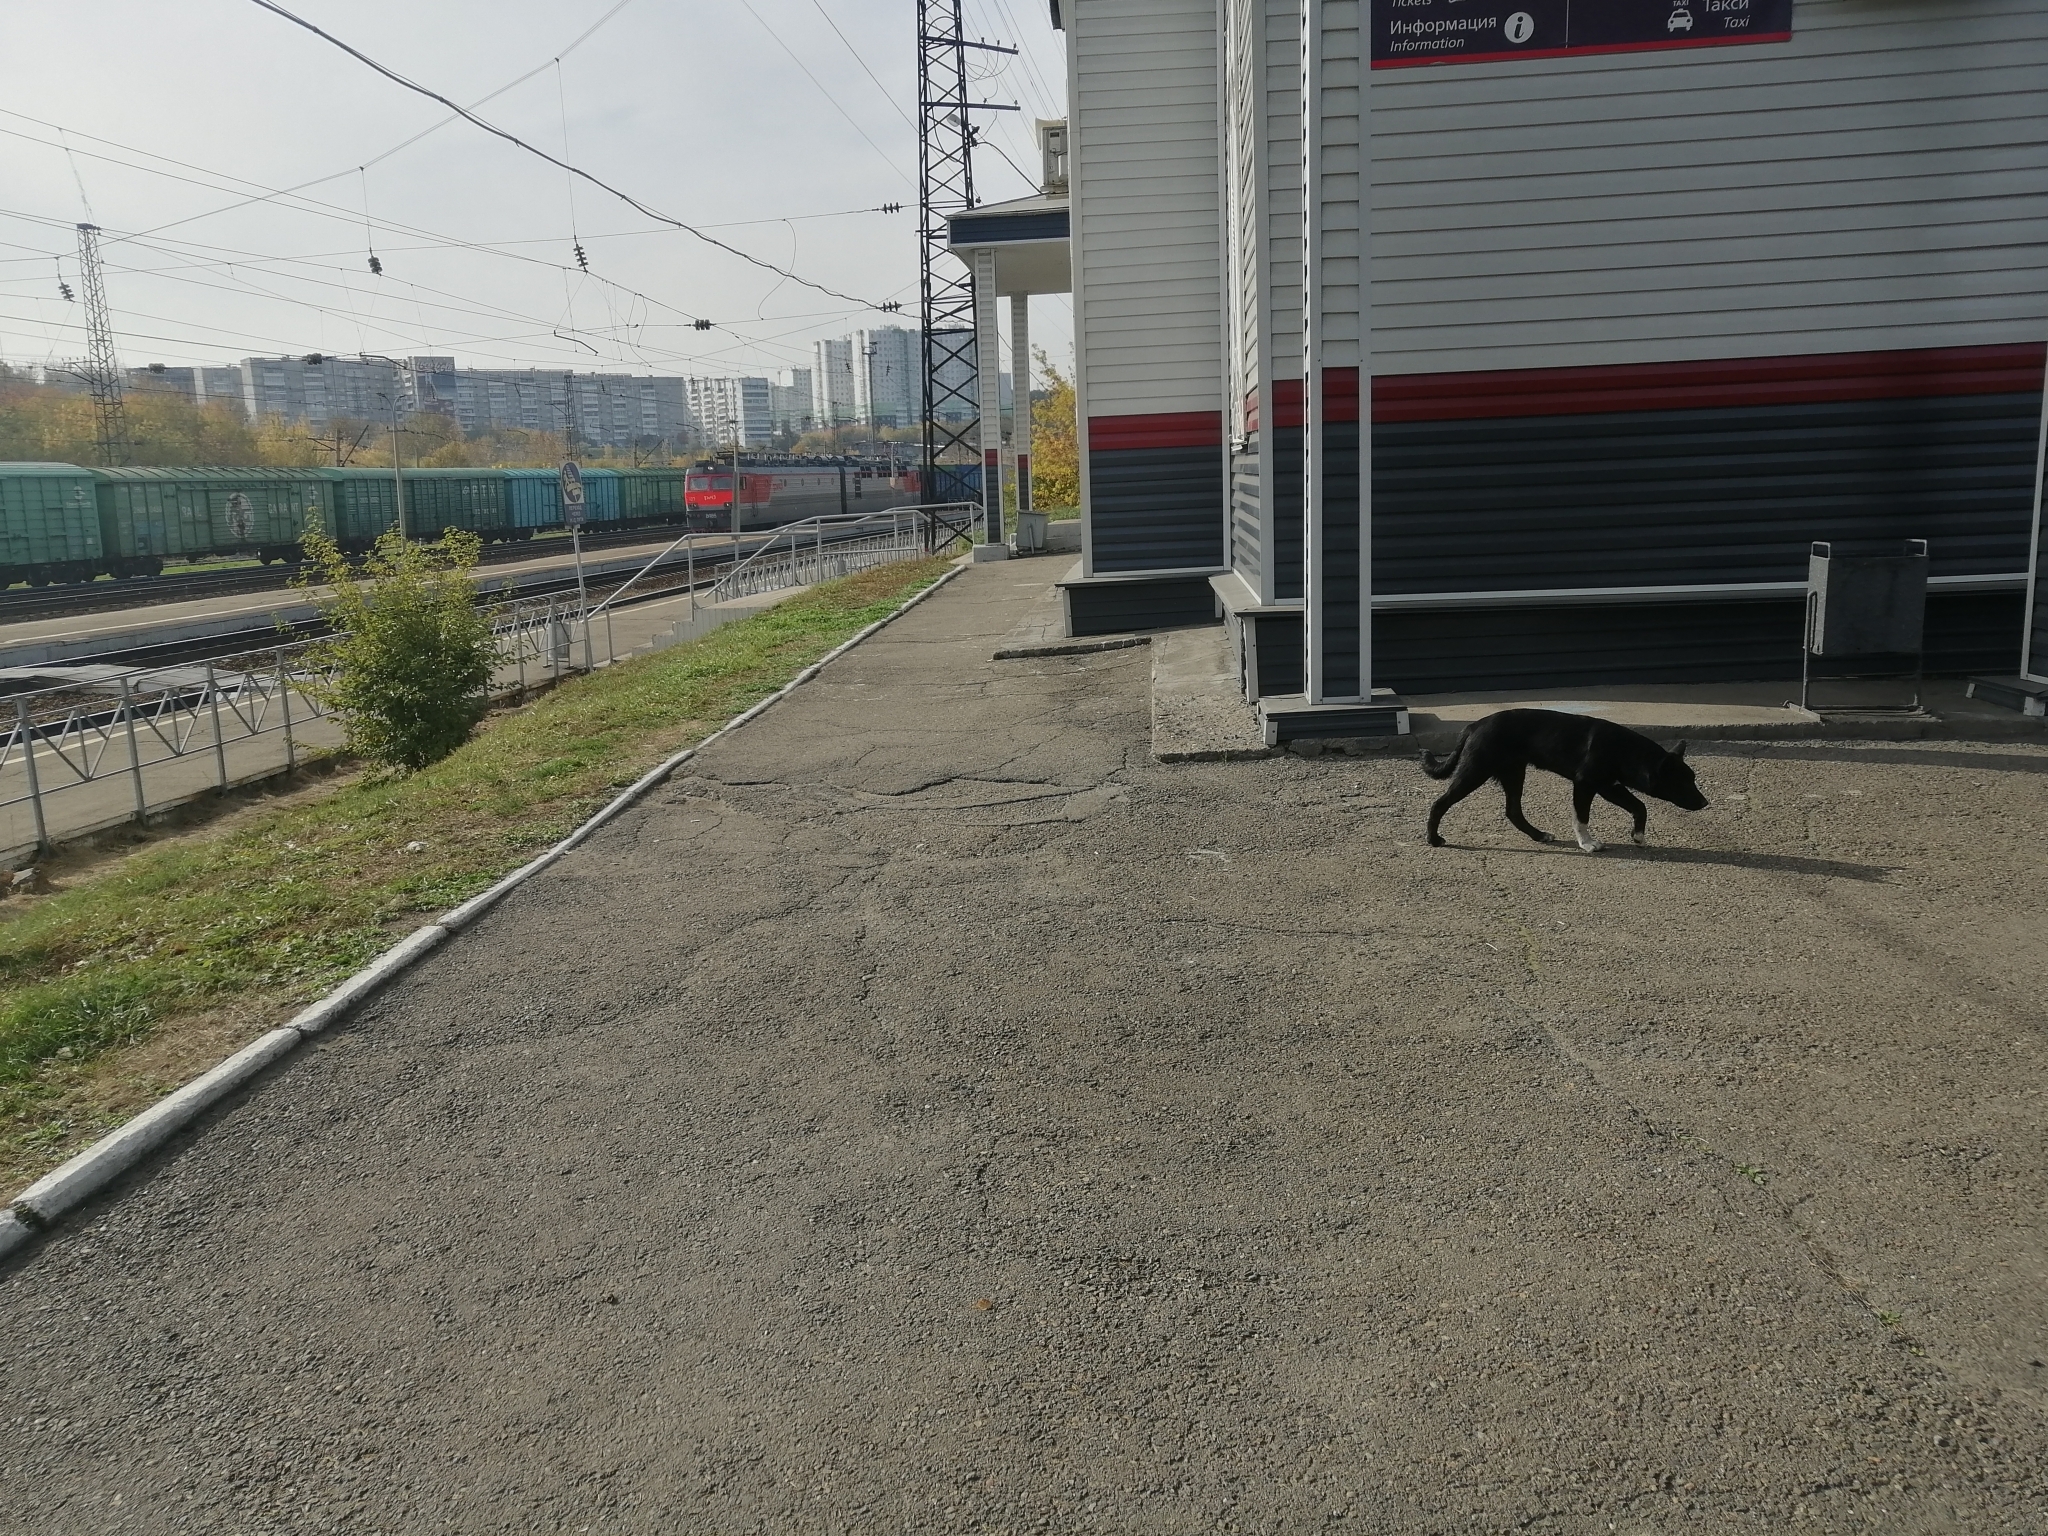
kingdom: Animalia
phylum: Chordata
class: Mammalia
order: Carnivora
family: Canidae
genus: Canis
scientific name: Canis lupus
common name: Gray wolf
